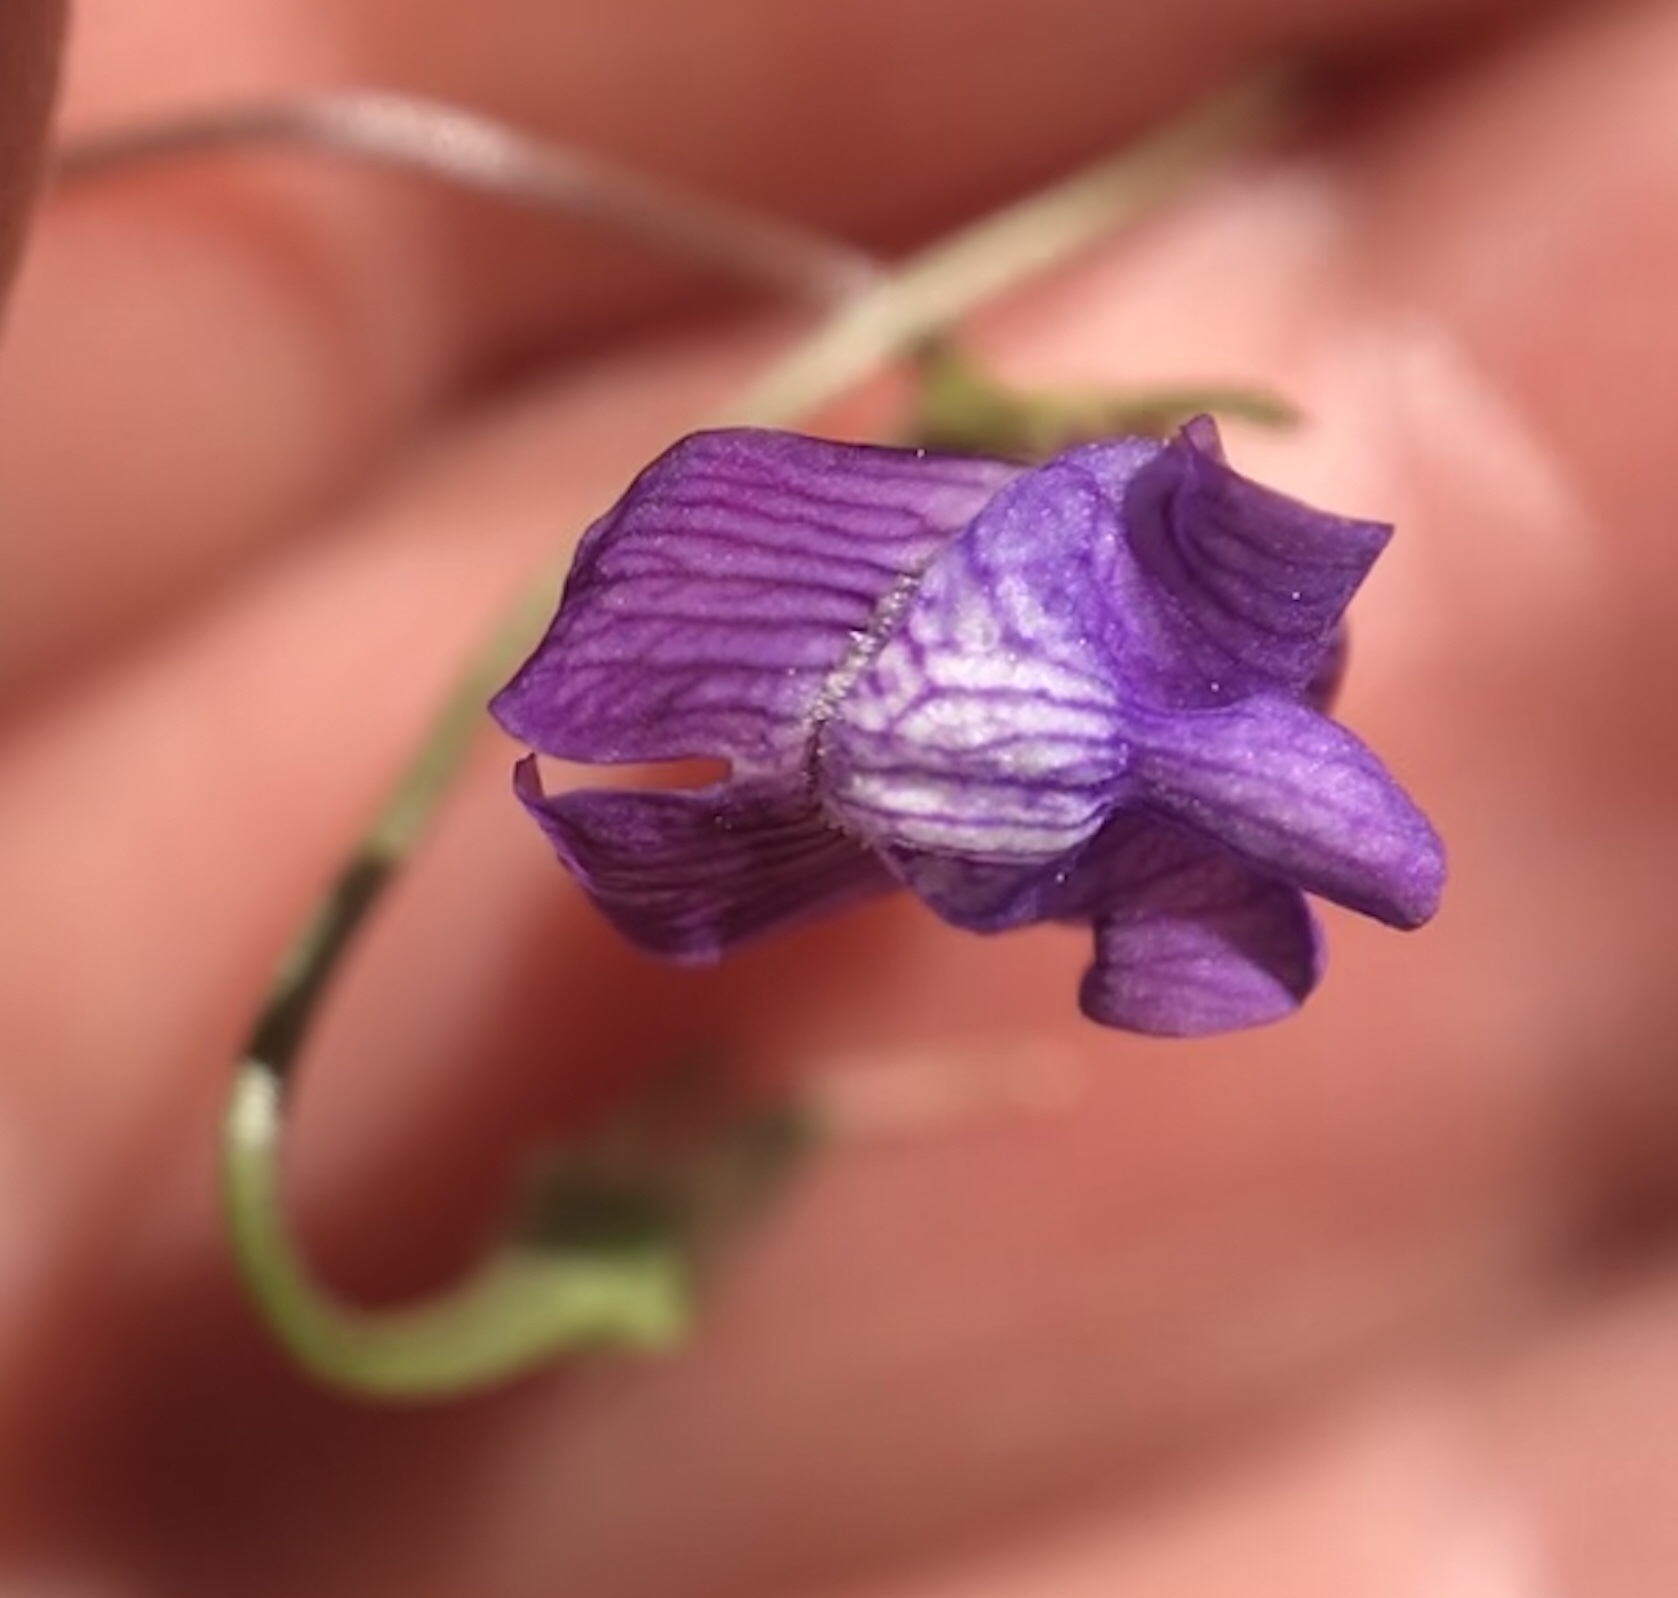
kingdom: Plantae
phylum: Tracheophyta
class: Magnoliopsida
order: Lamiales
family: Plantaginaceae
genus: Neogaerrhinum
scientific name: Neogaerrhinum strictum
